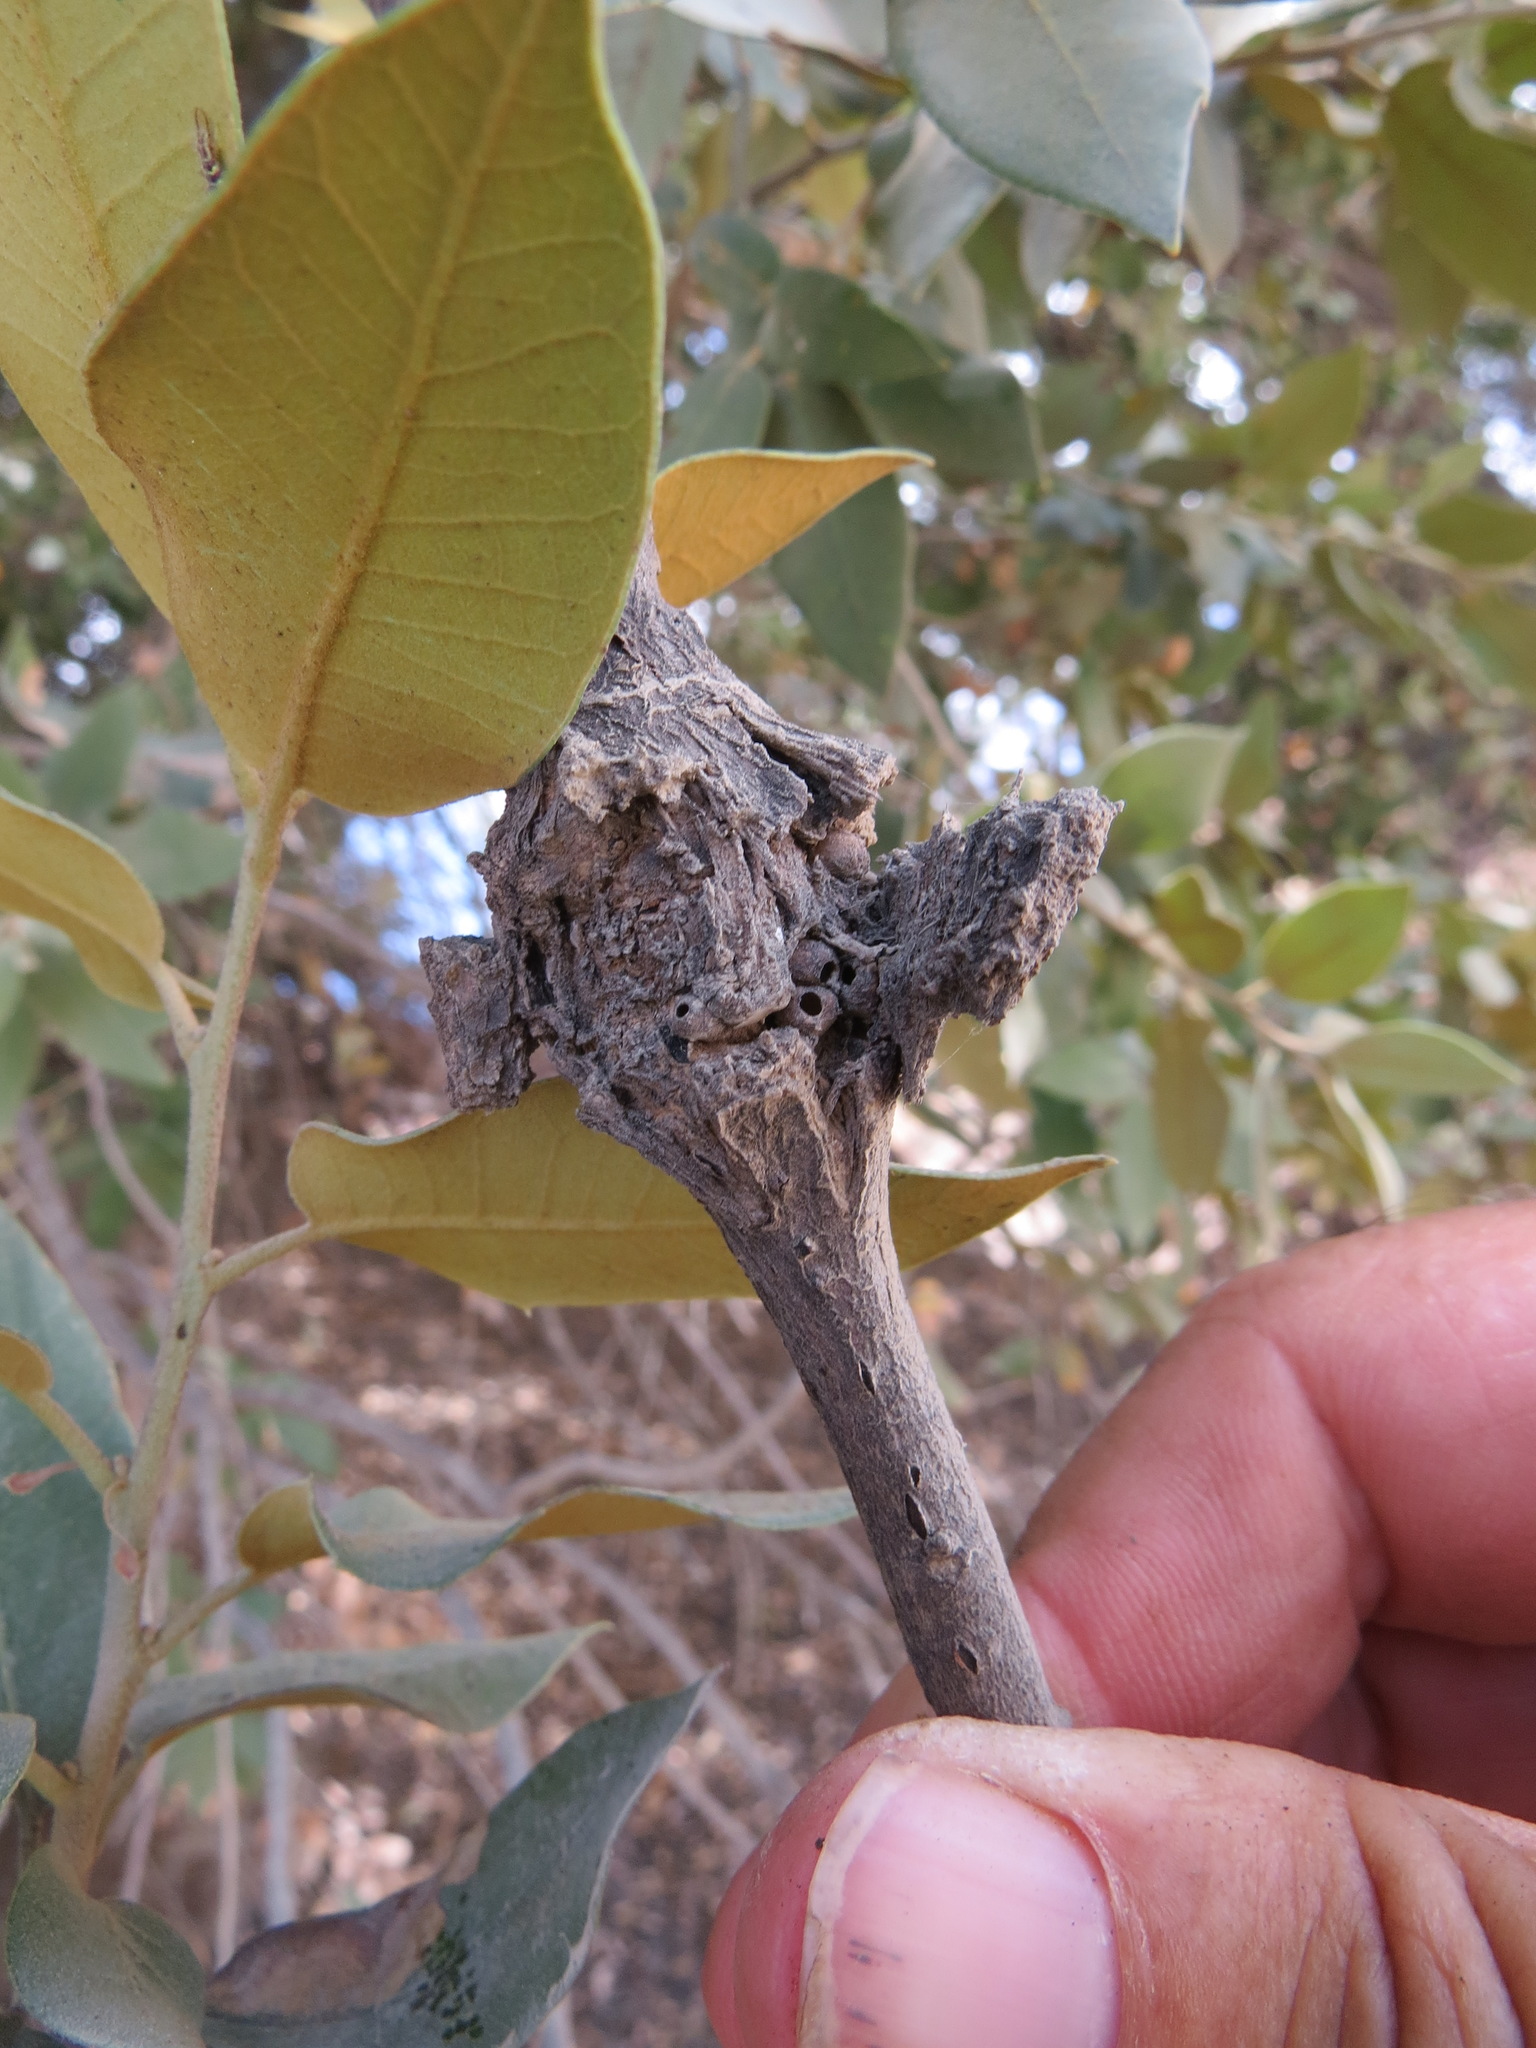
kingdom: Animalia
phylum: Arthropoda
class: Insecta
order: Hymenoptera
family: Cynipidae
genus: Dryocosmus
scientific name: Dryocosmus
